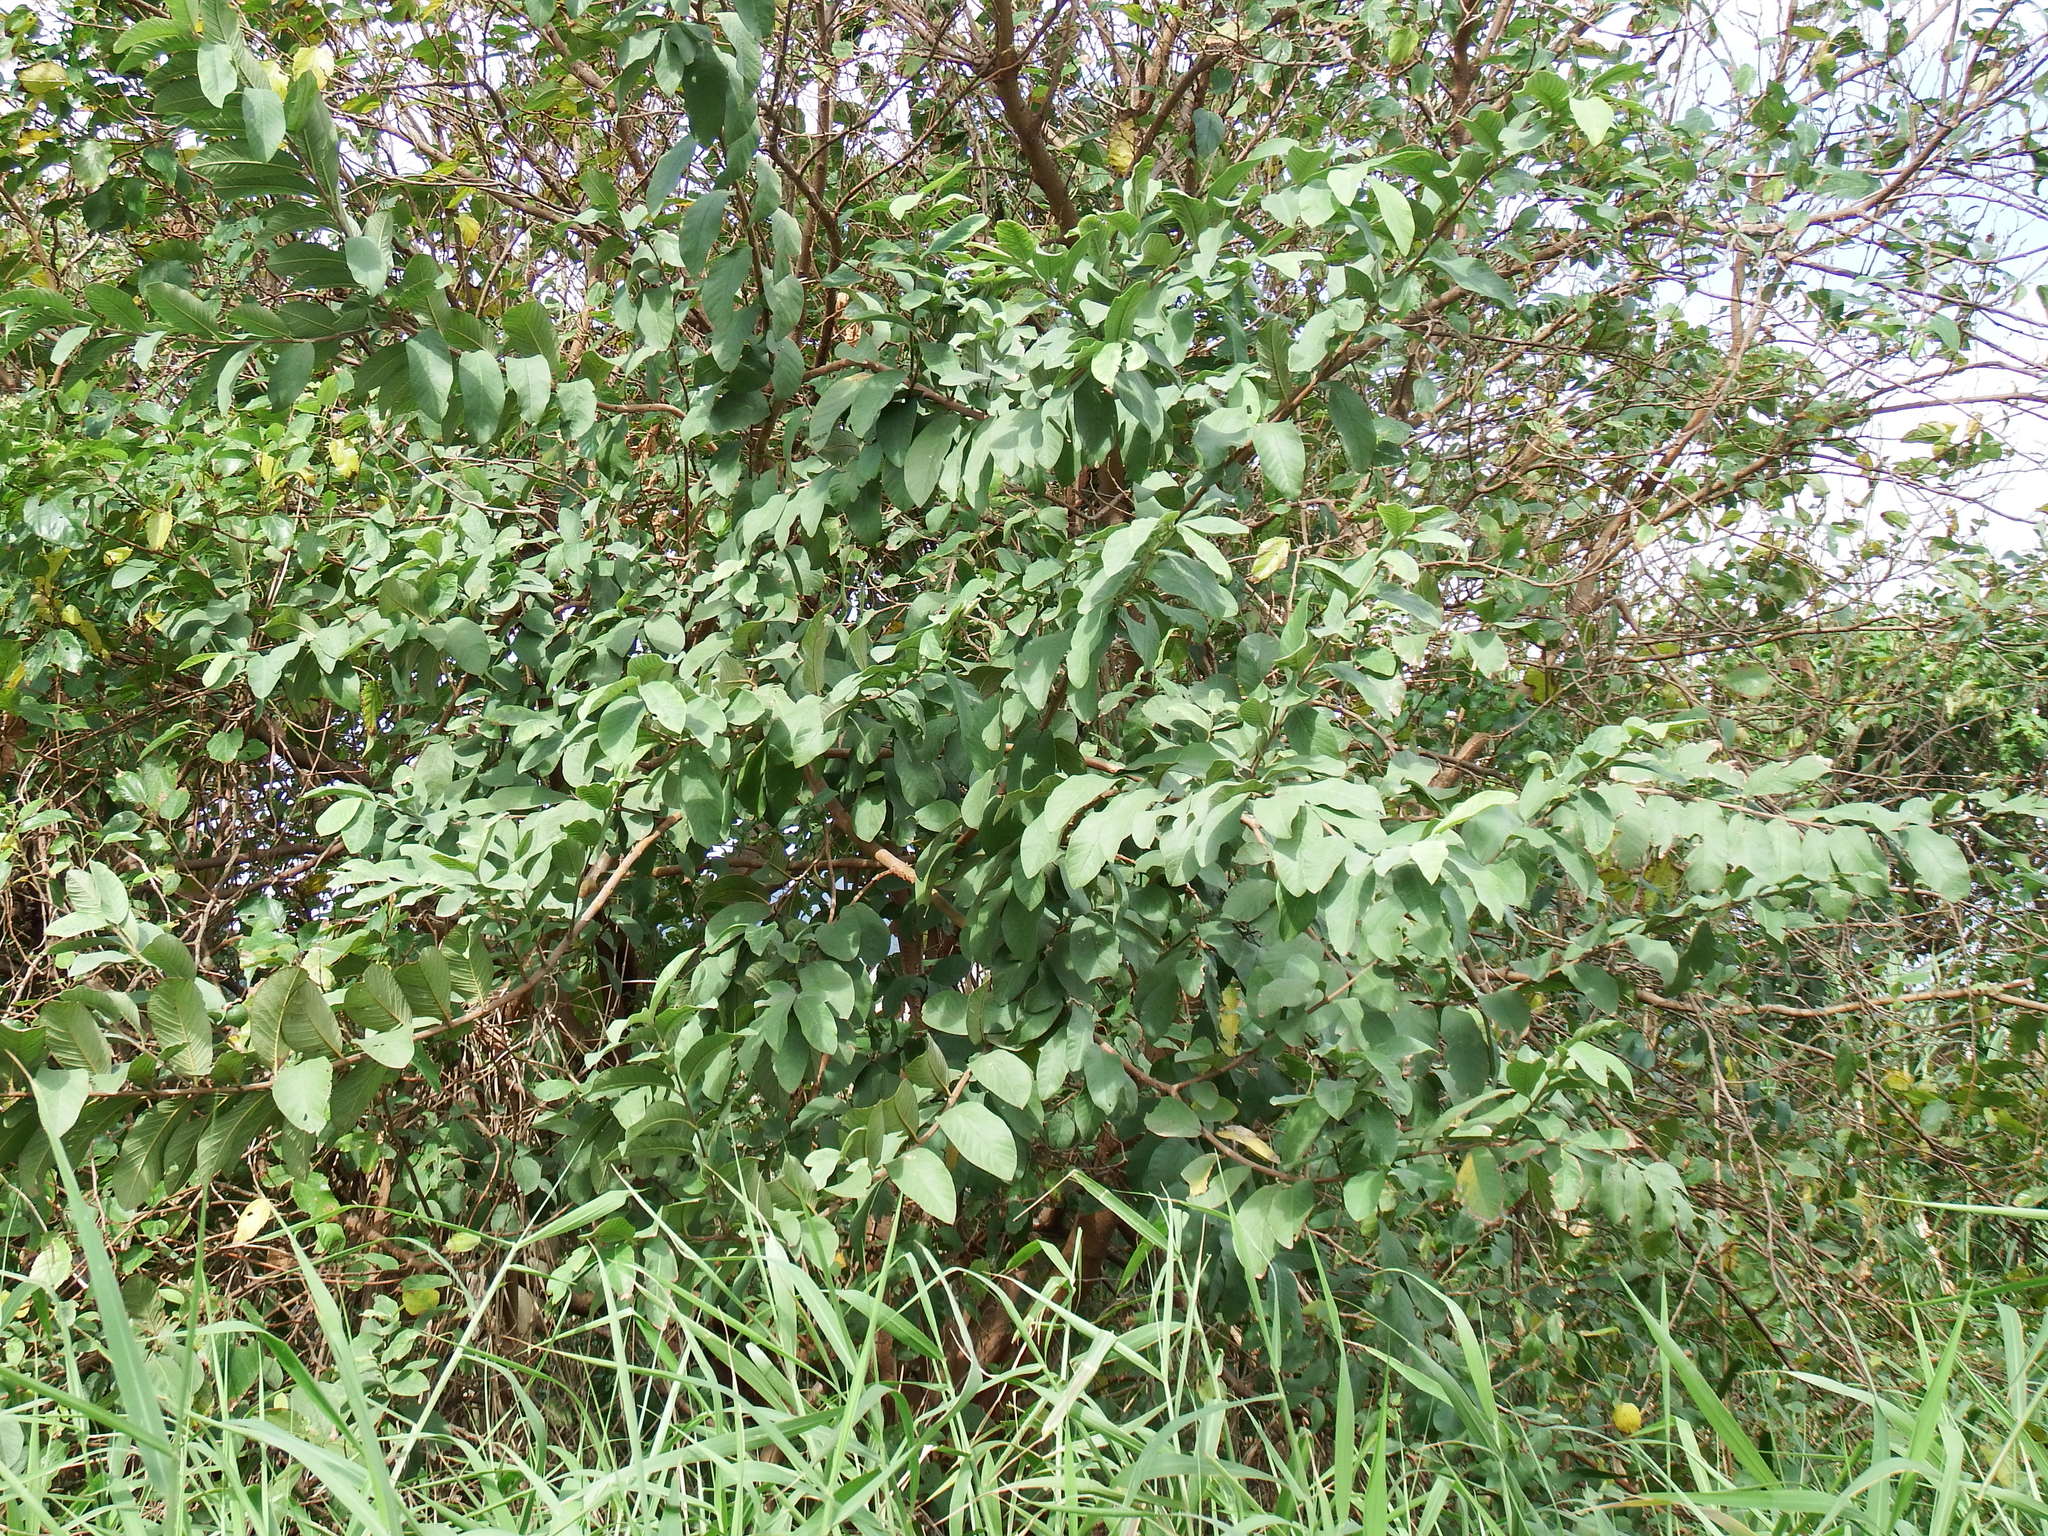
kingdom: Plantae
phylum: Tracheophyta
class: Magnoliopsida
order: Myrtales
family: Myrtaceae
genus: Psidium
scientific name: Psidium guajava
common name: Guava
